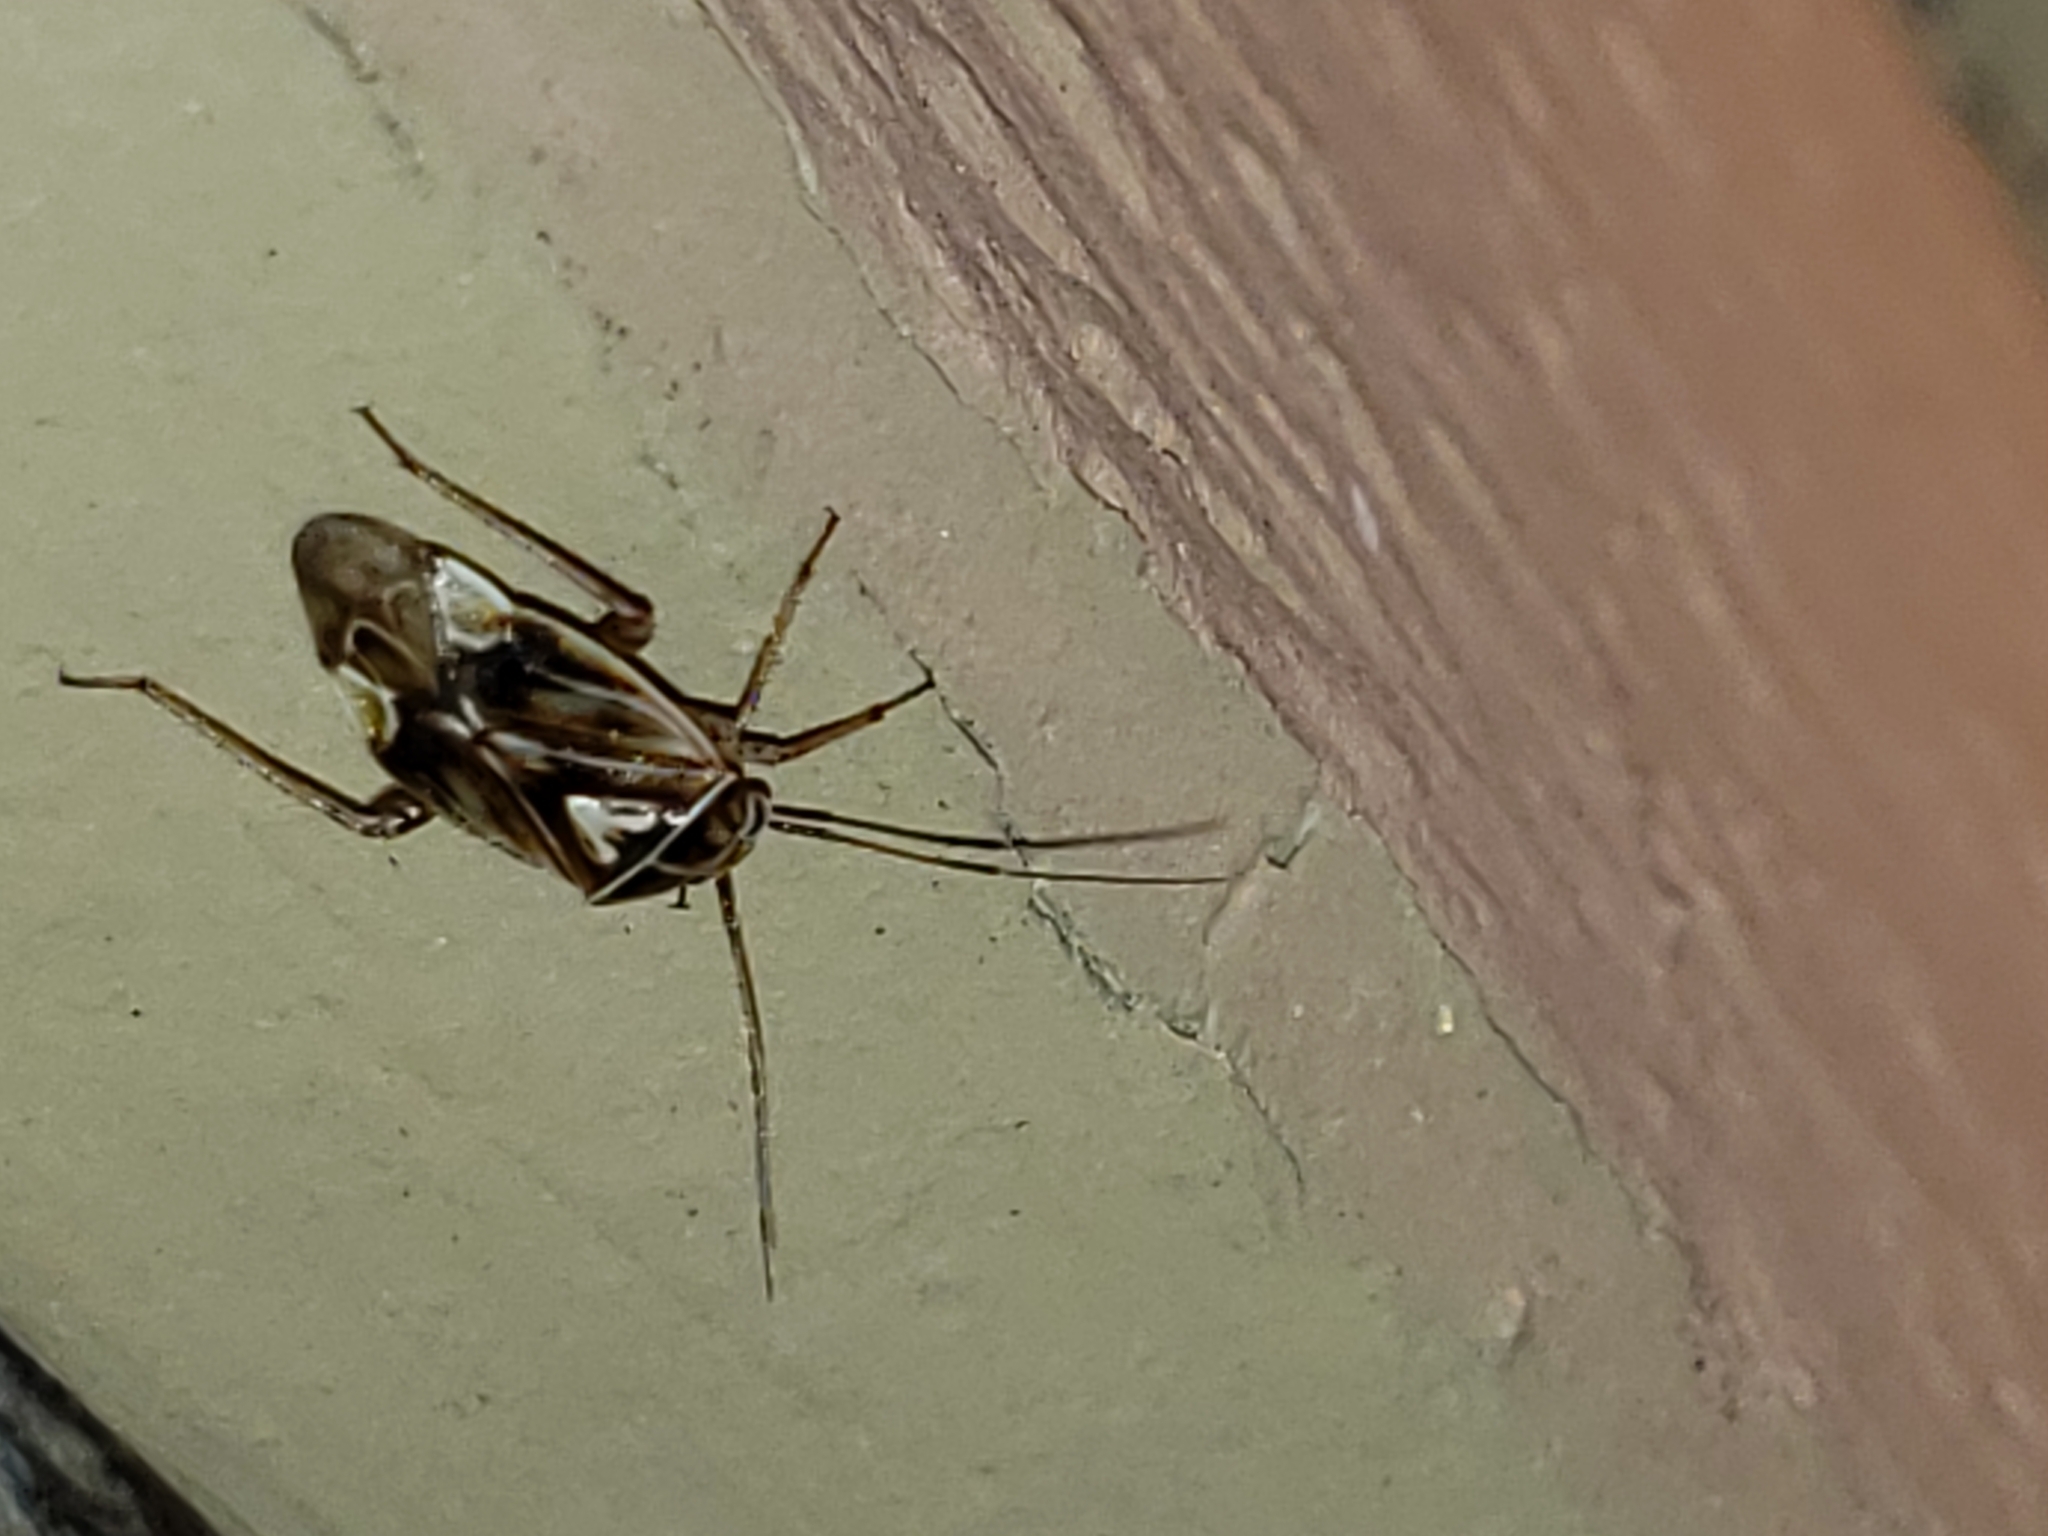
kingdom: Animalia
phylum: Arthropoda
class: Insecta
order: Hemiptera
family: Miridae
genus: Lygus
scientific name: Lygus lineolaris
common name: North american tarnished plant bug
